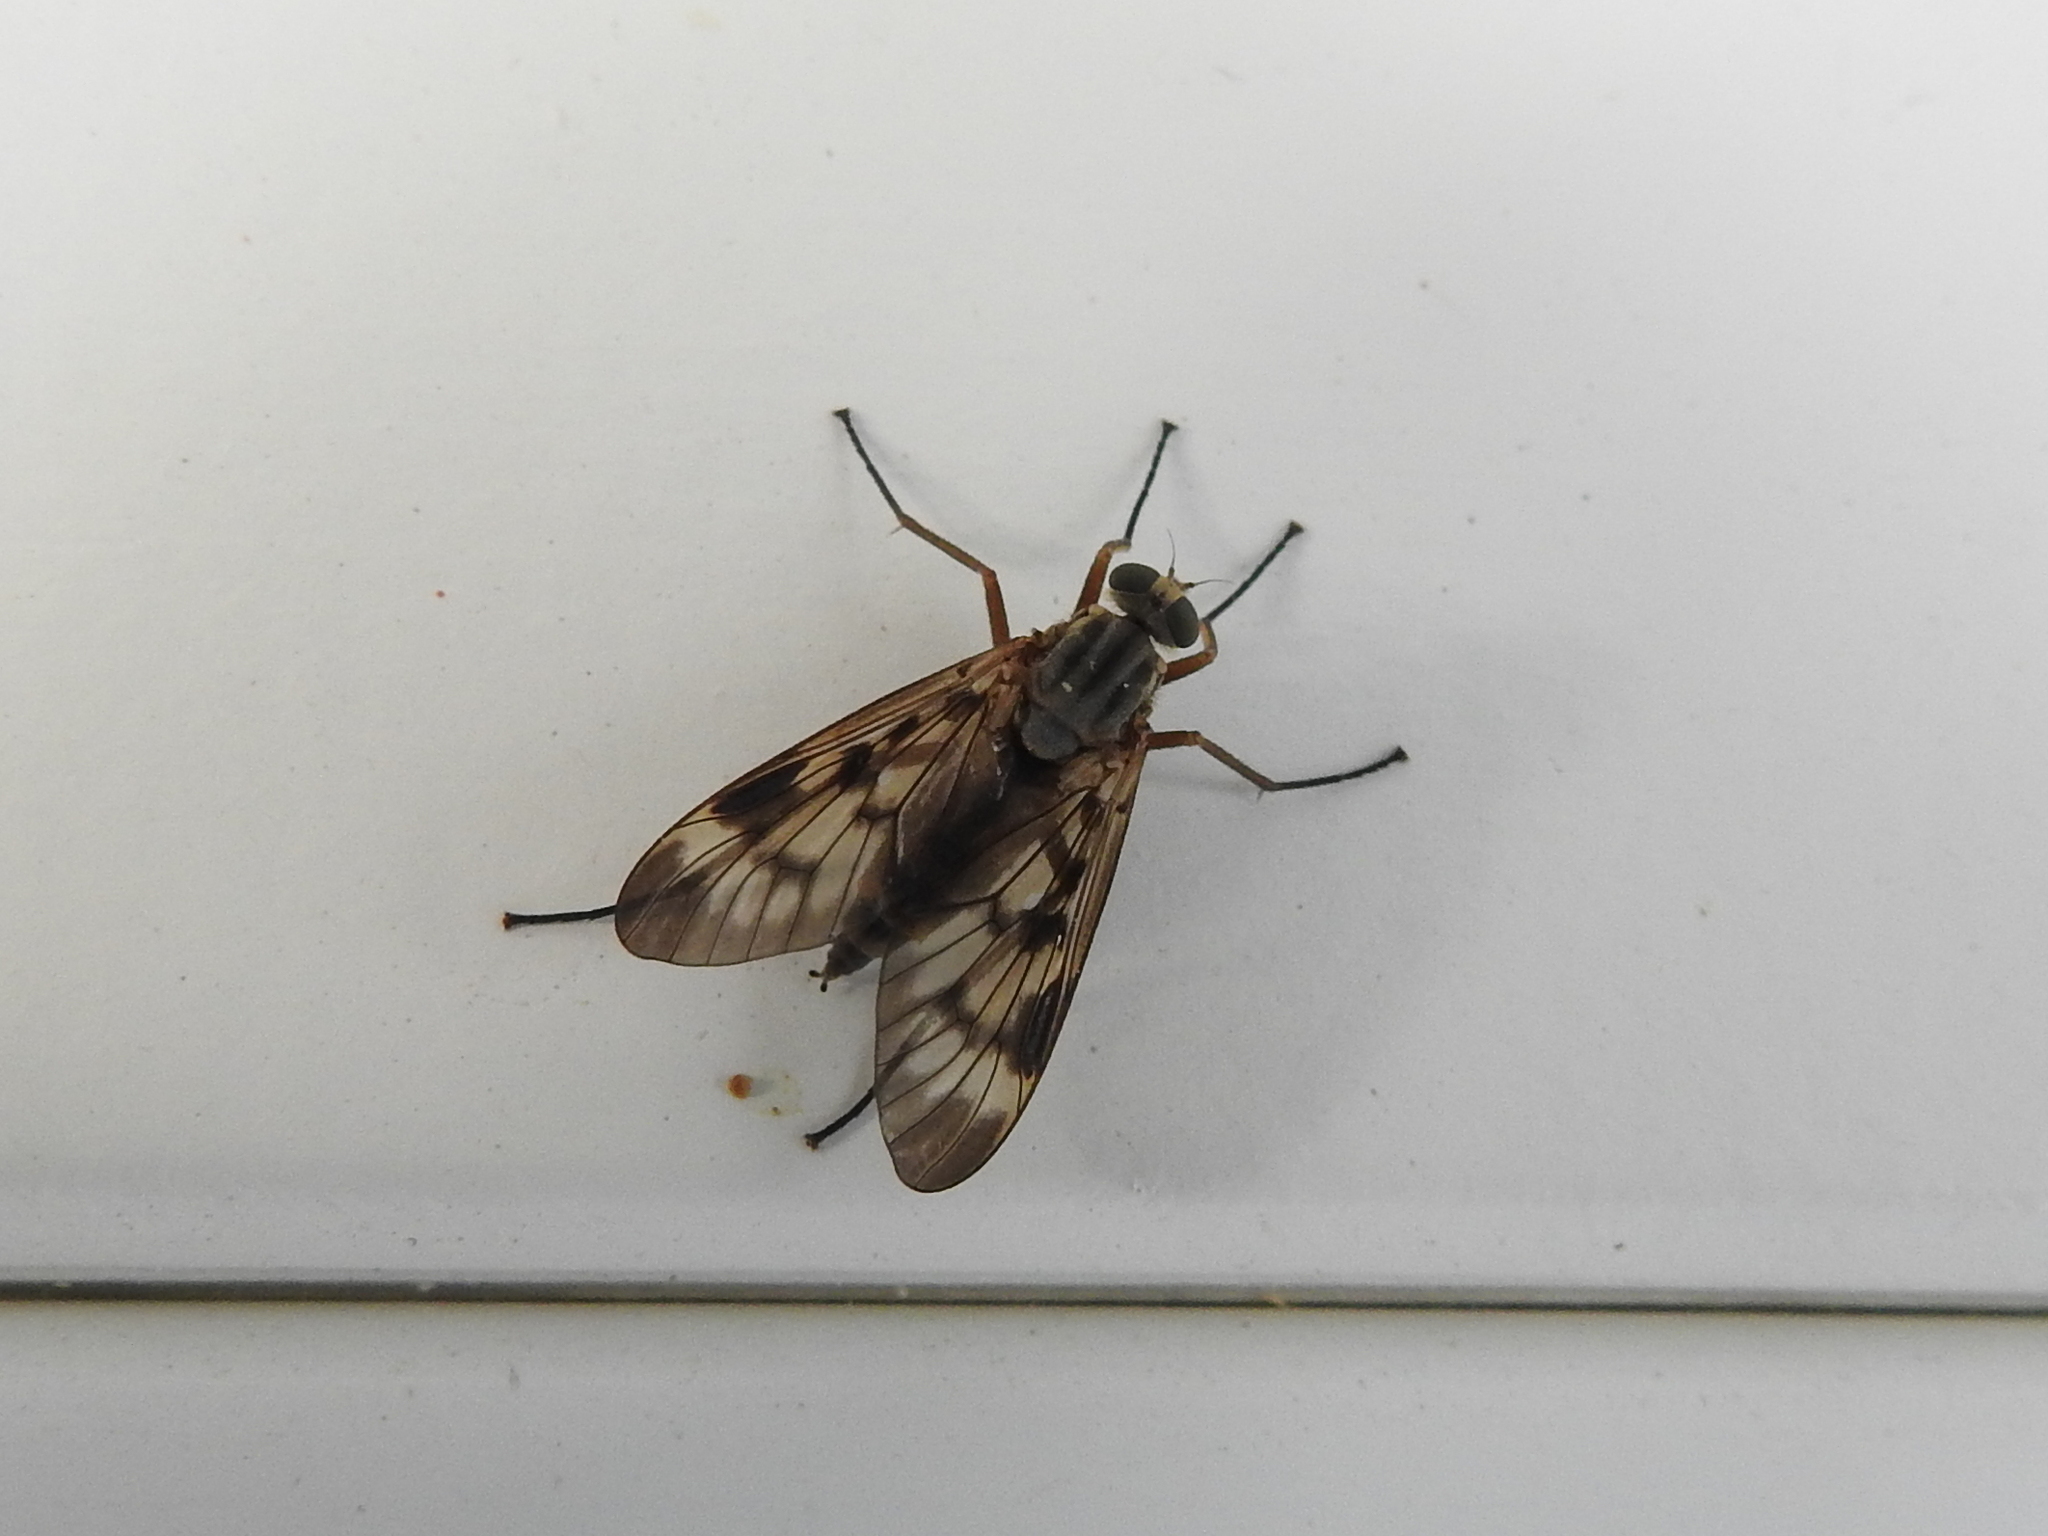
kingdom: Animalia
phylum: Arthropoda
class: Insecta
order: Diptera
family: Rhagionidae
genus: Rhagio
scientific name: Rhagio scolopacea
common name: Downlooker snipefly
